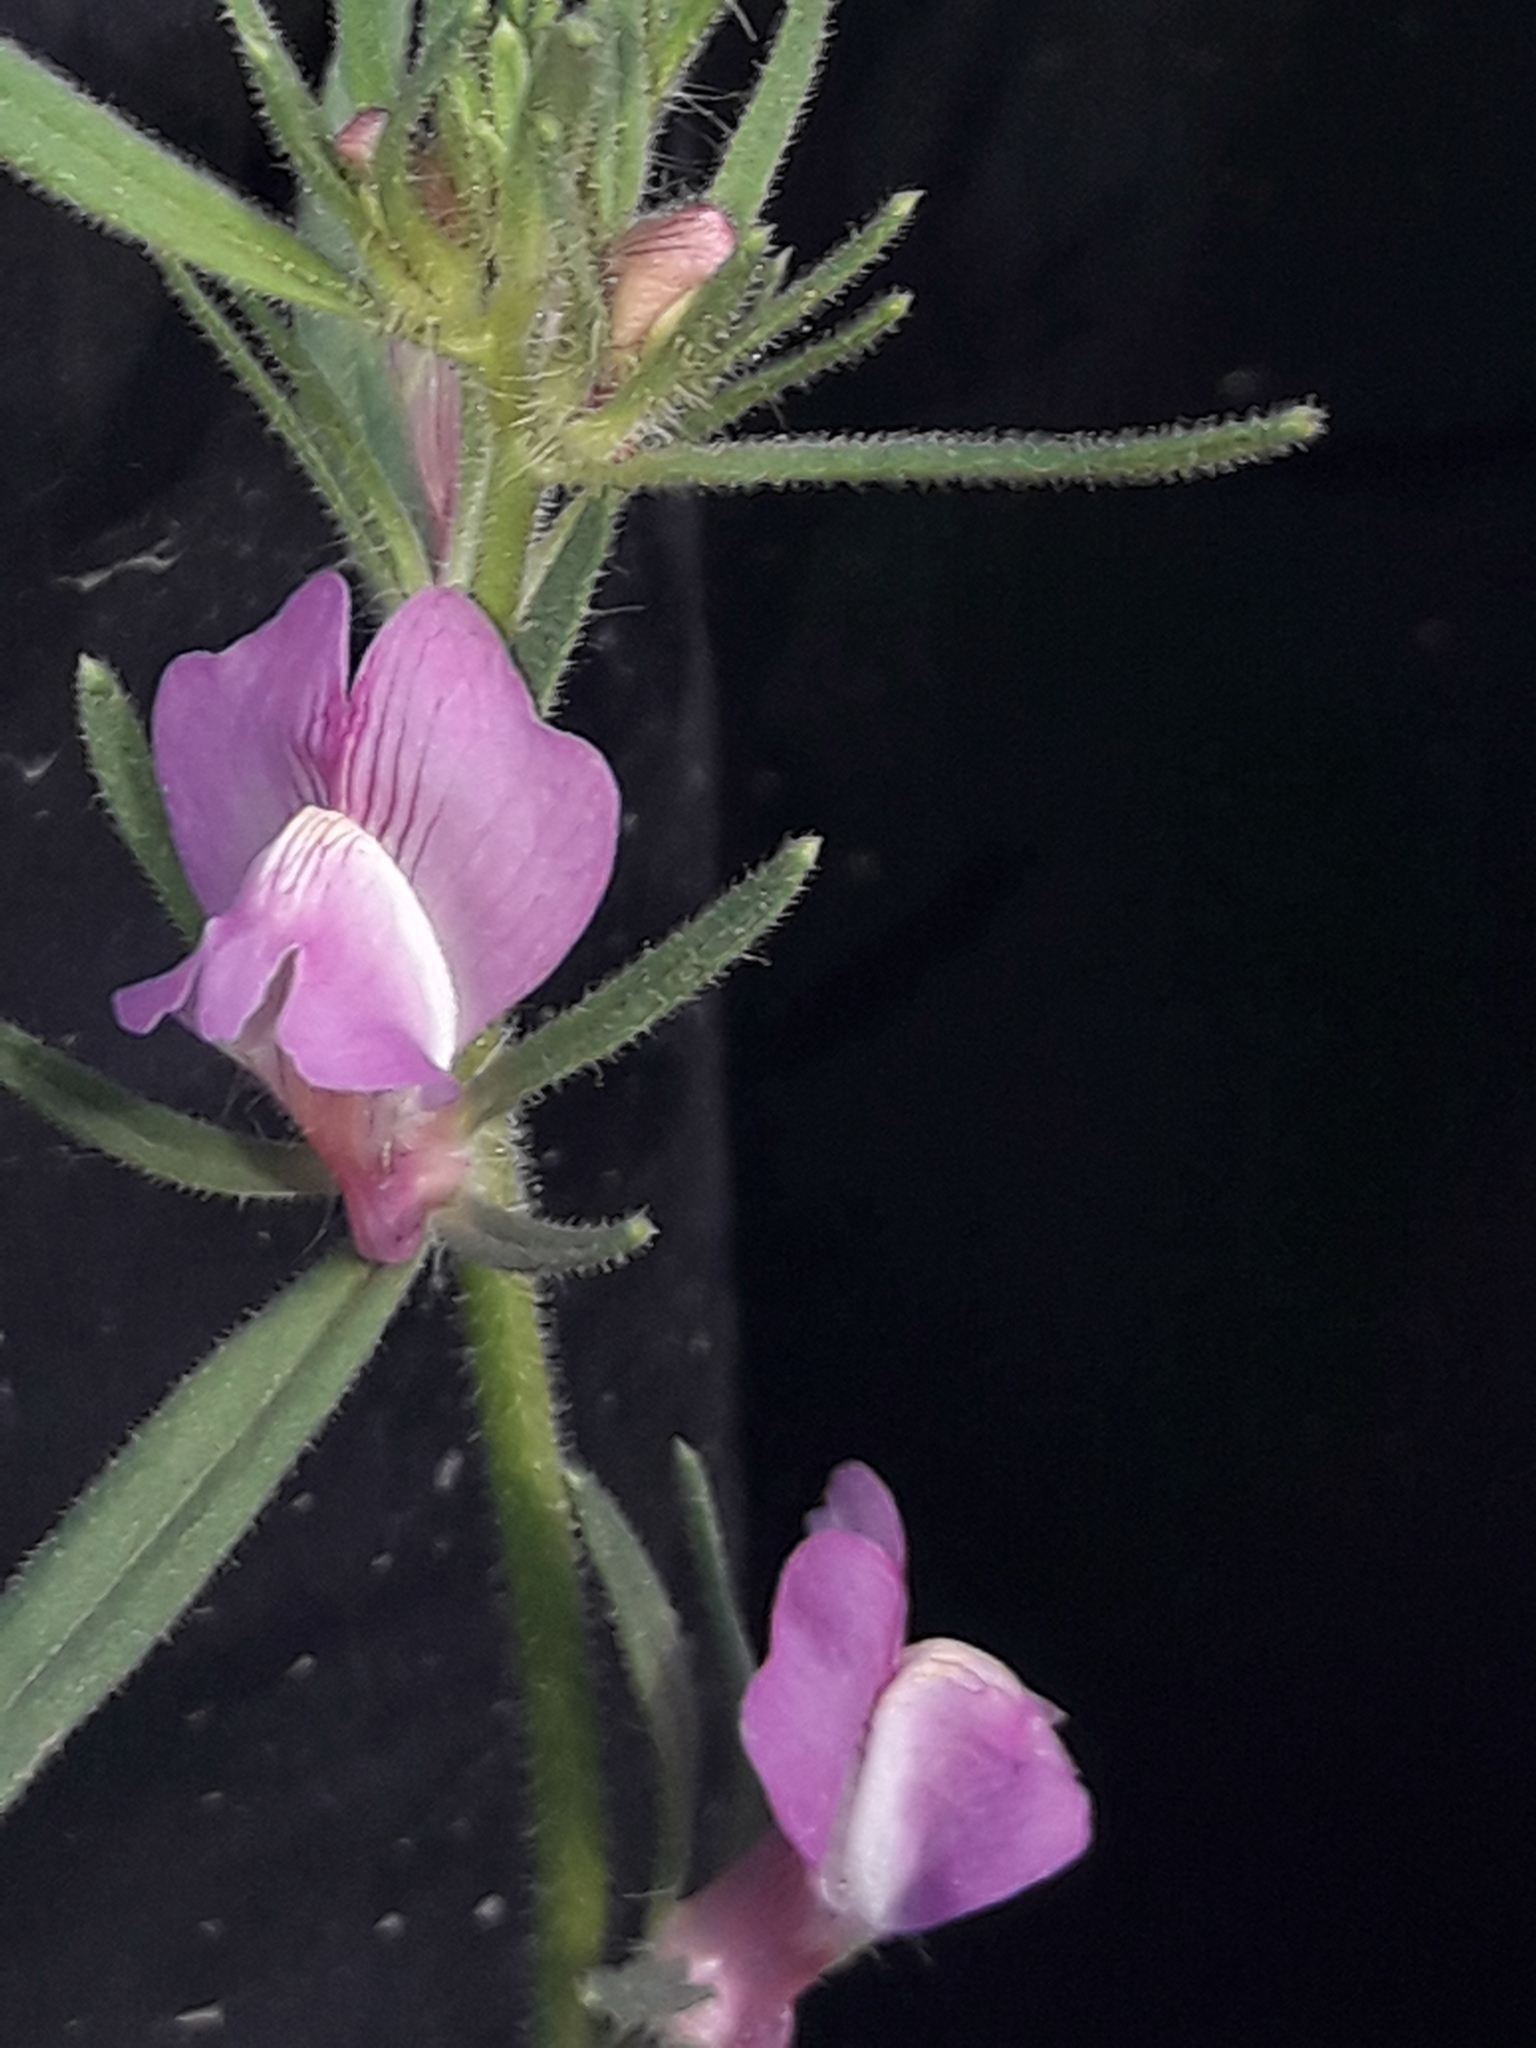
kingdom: Plantae
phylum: Tracheophyta
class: Magnoliopsida
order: Lamiales
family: Plantaginaceae
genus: Misopates
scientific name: Misopates orontium
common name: Weasel's-snout
